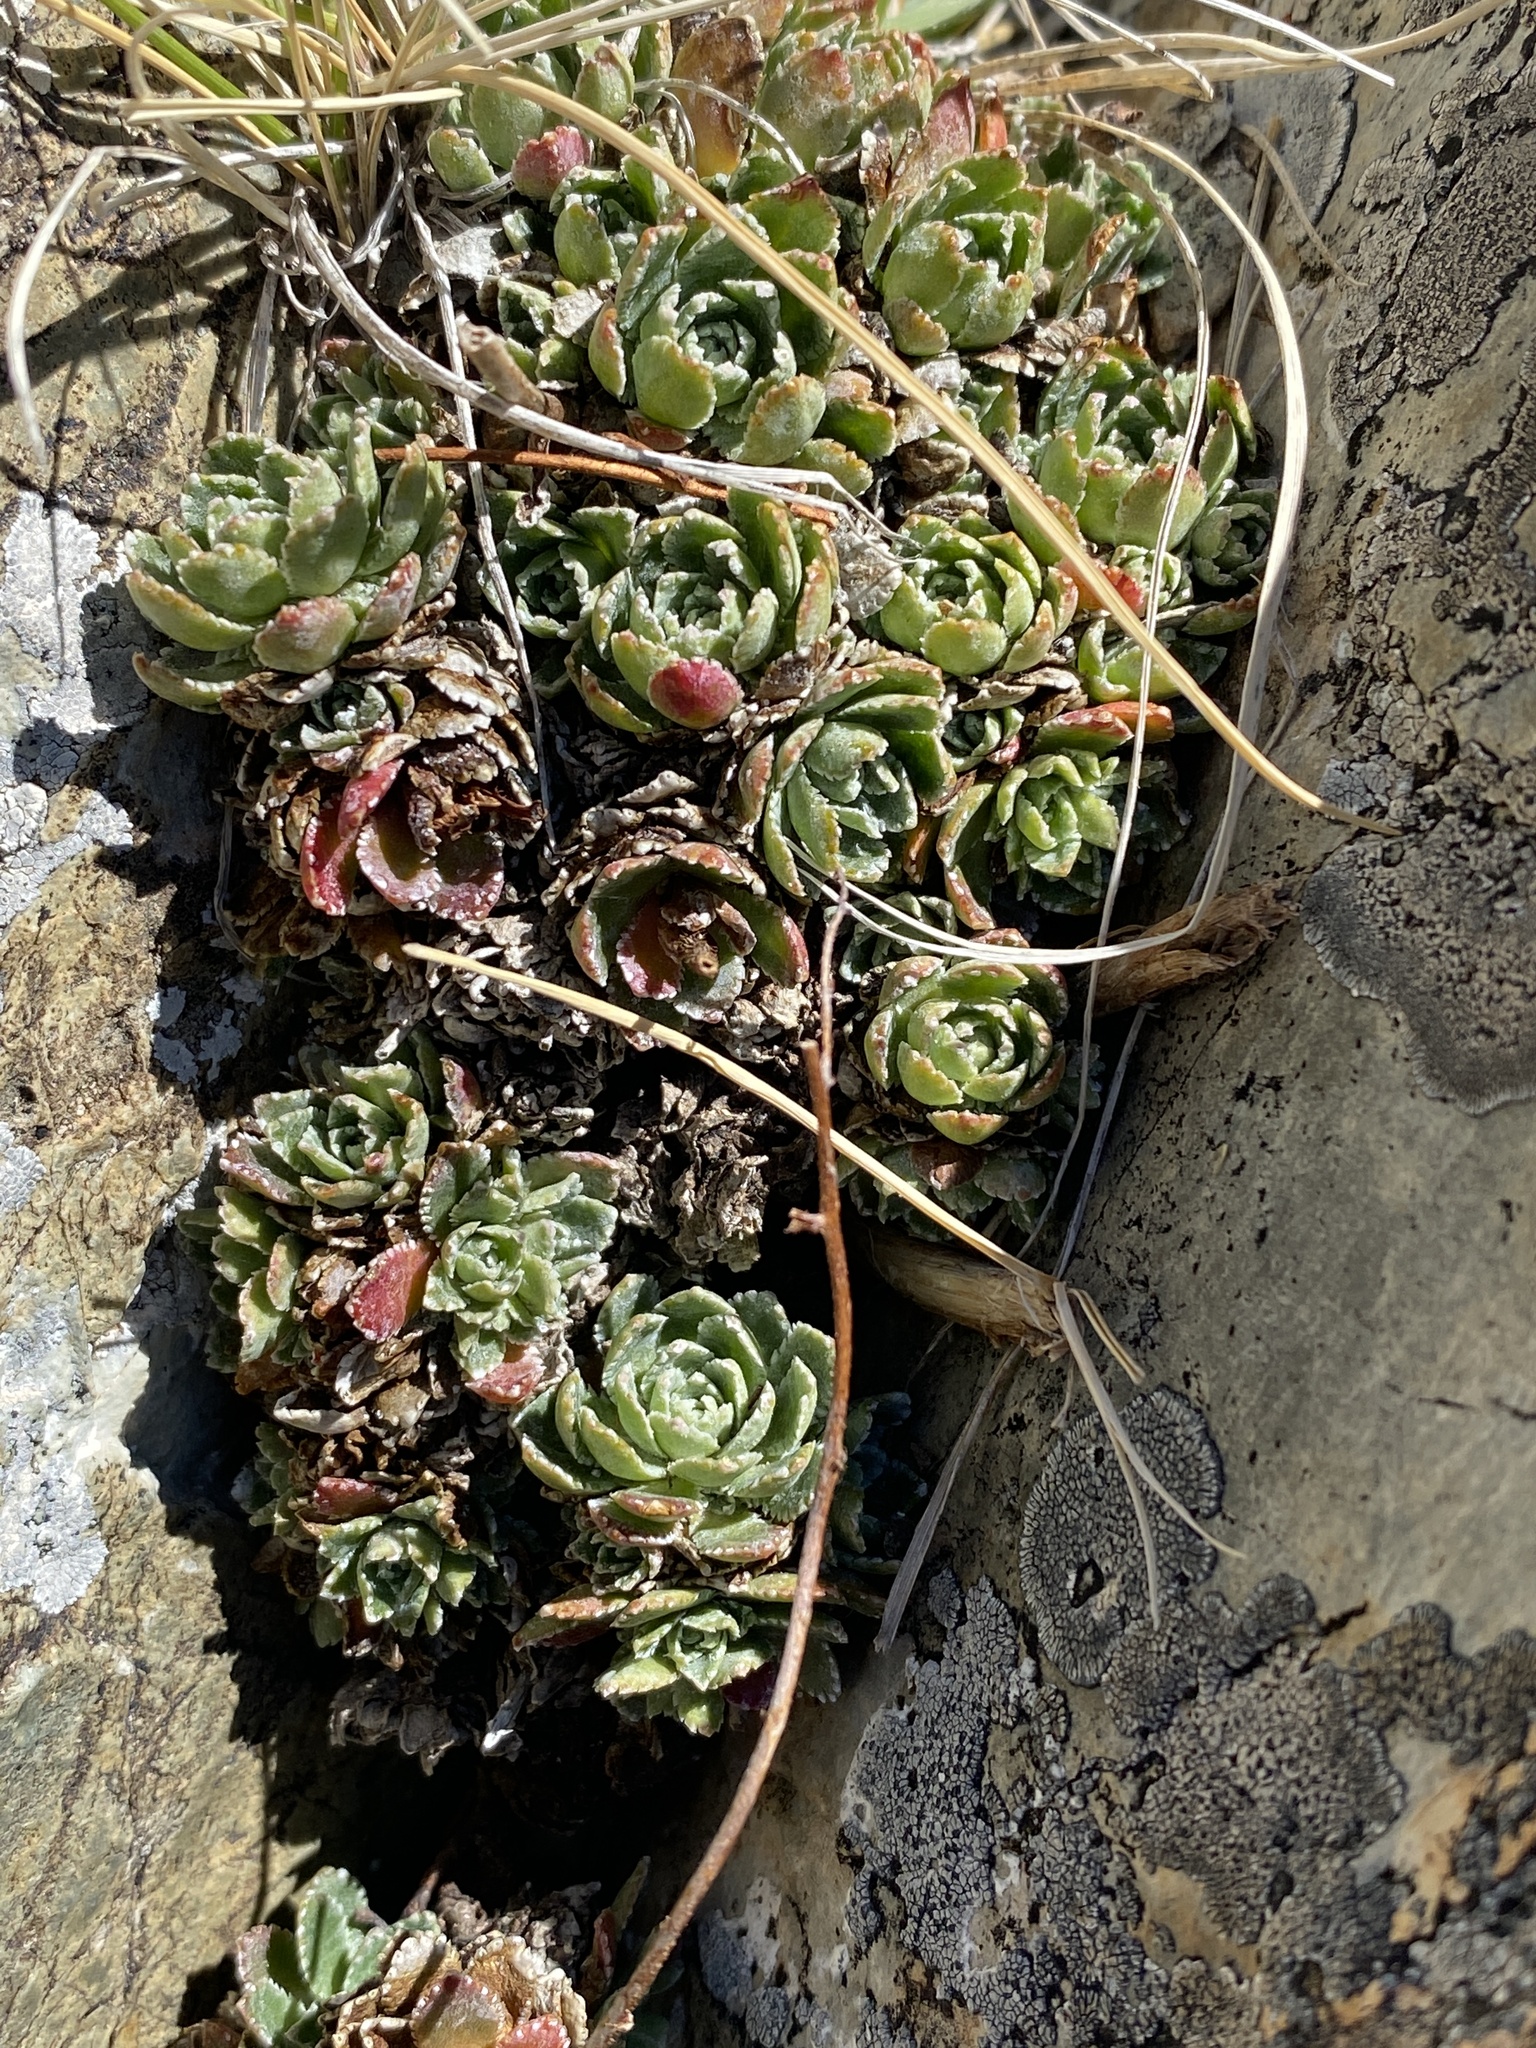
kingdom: Plantae
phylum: Tracheophyta
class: Magnoliopsida
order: Saxifragales
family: Saxifragaceae
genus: Saxifraga
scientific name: Saxifraga paniculata
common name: Livelong saxifrage
